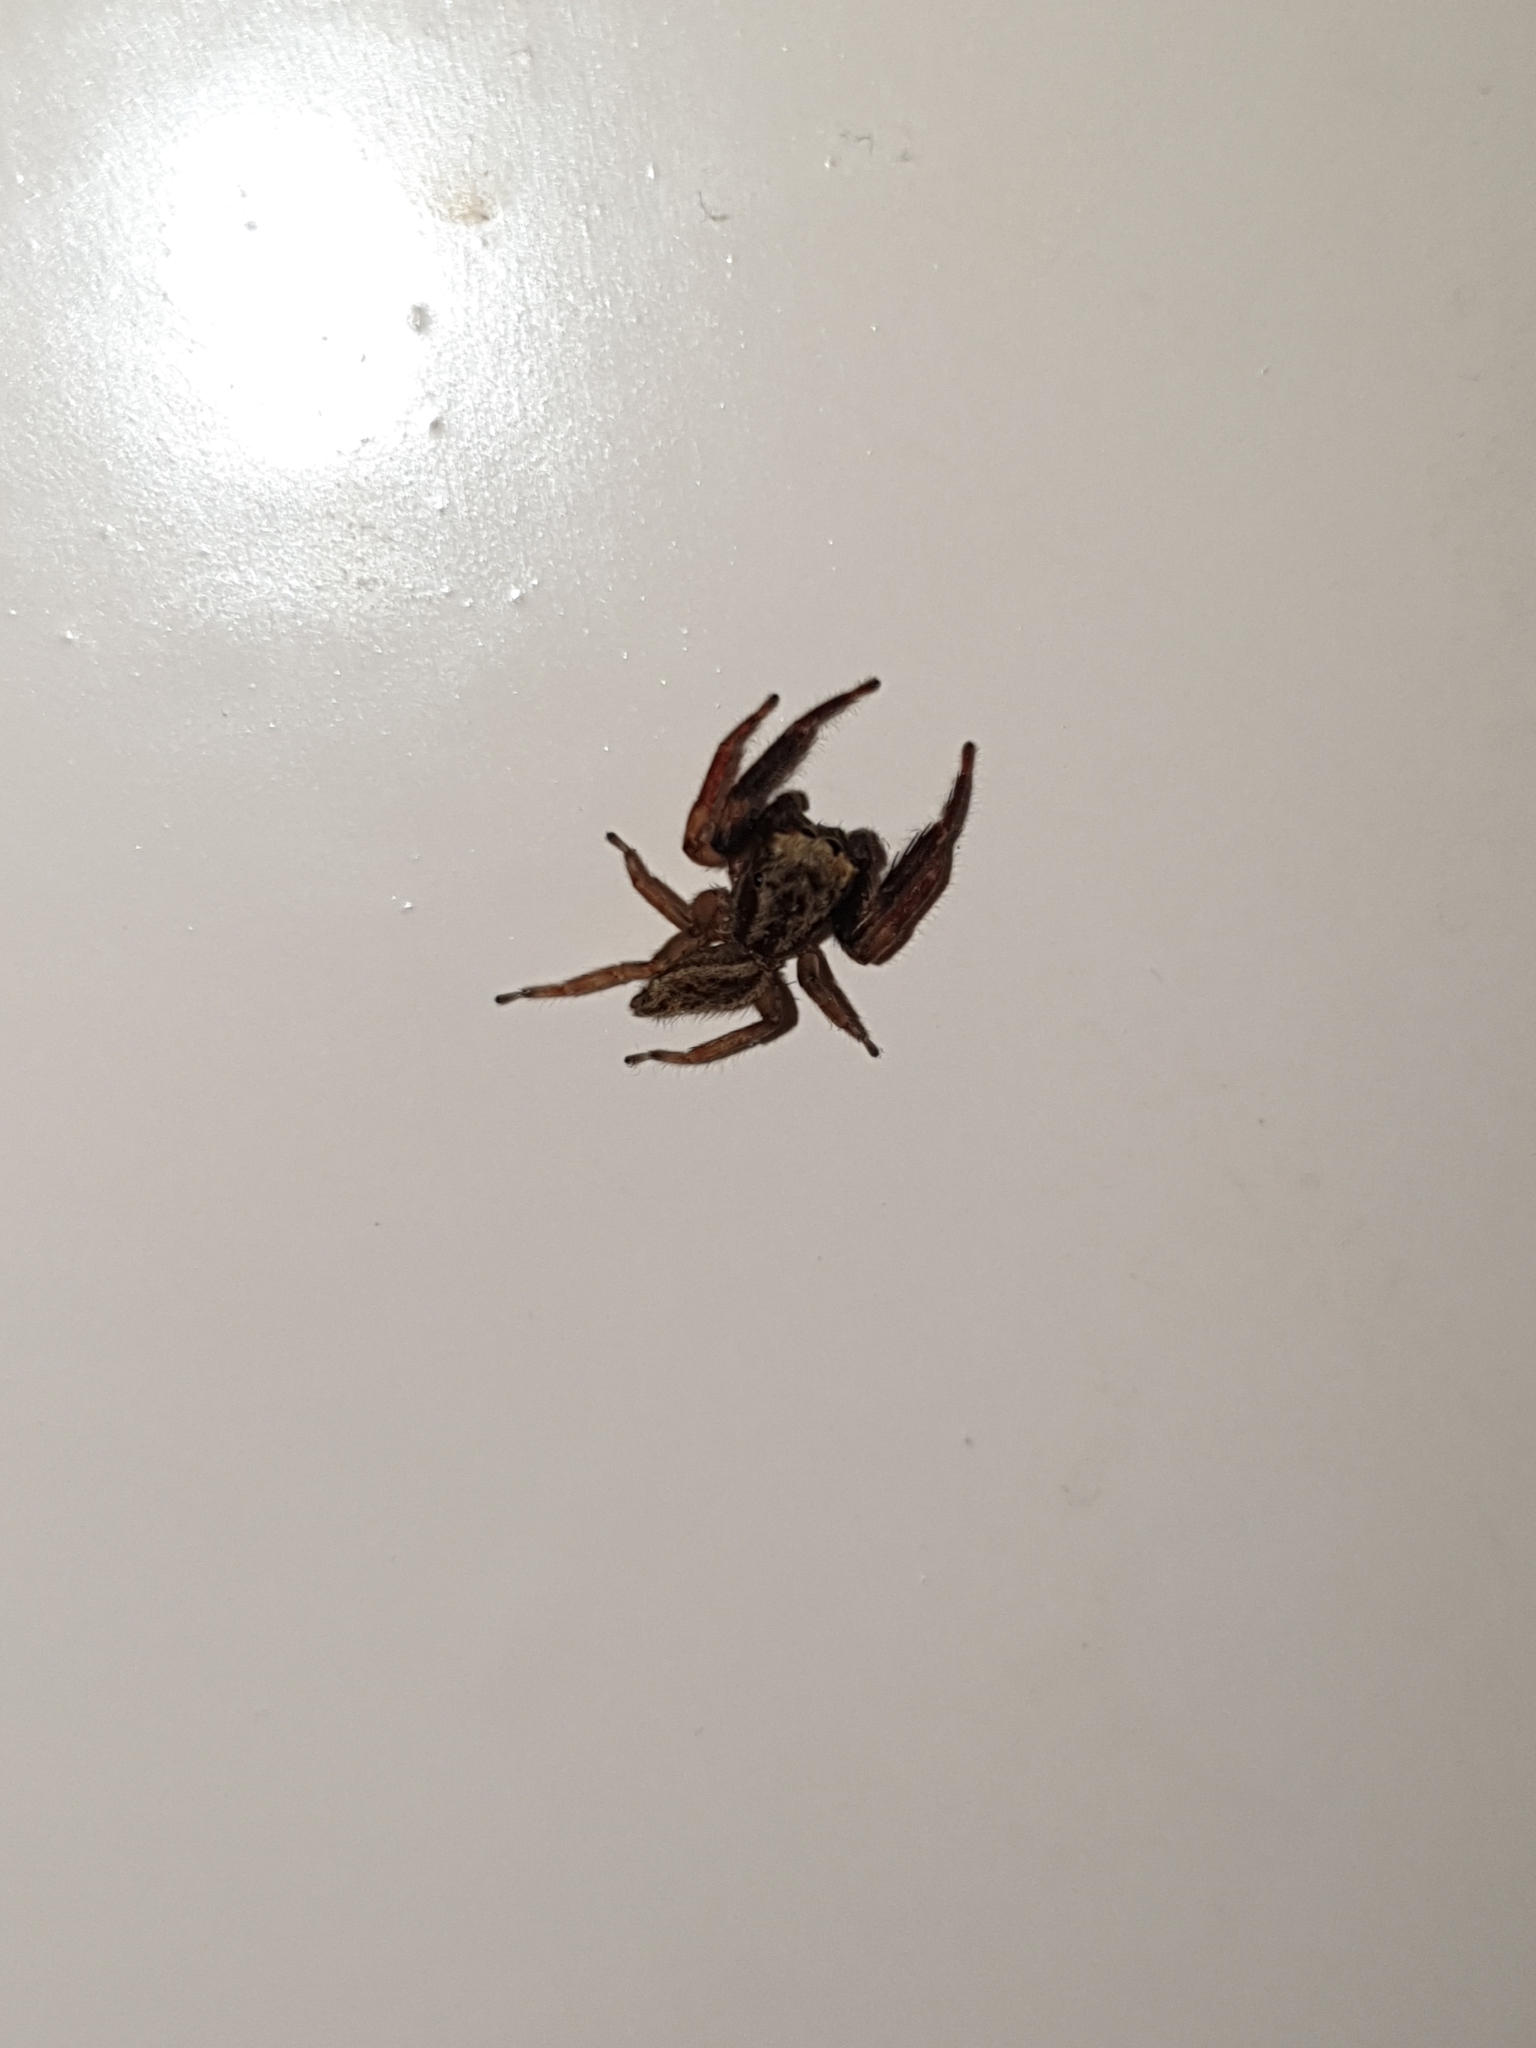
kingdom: Animalia
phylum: Arthropoda
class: Arachnida
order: Araneae
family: Salticidae
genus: Trite
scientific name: Trite auricoma
